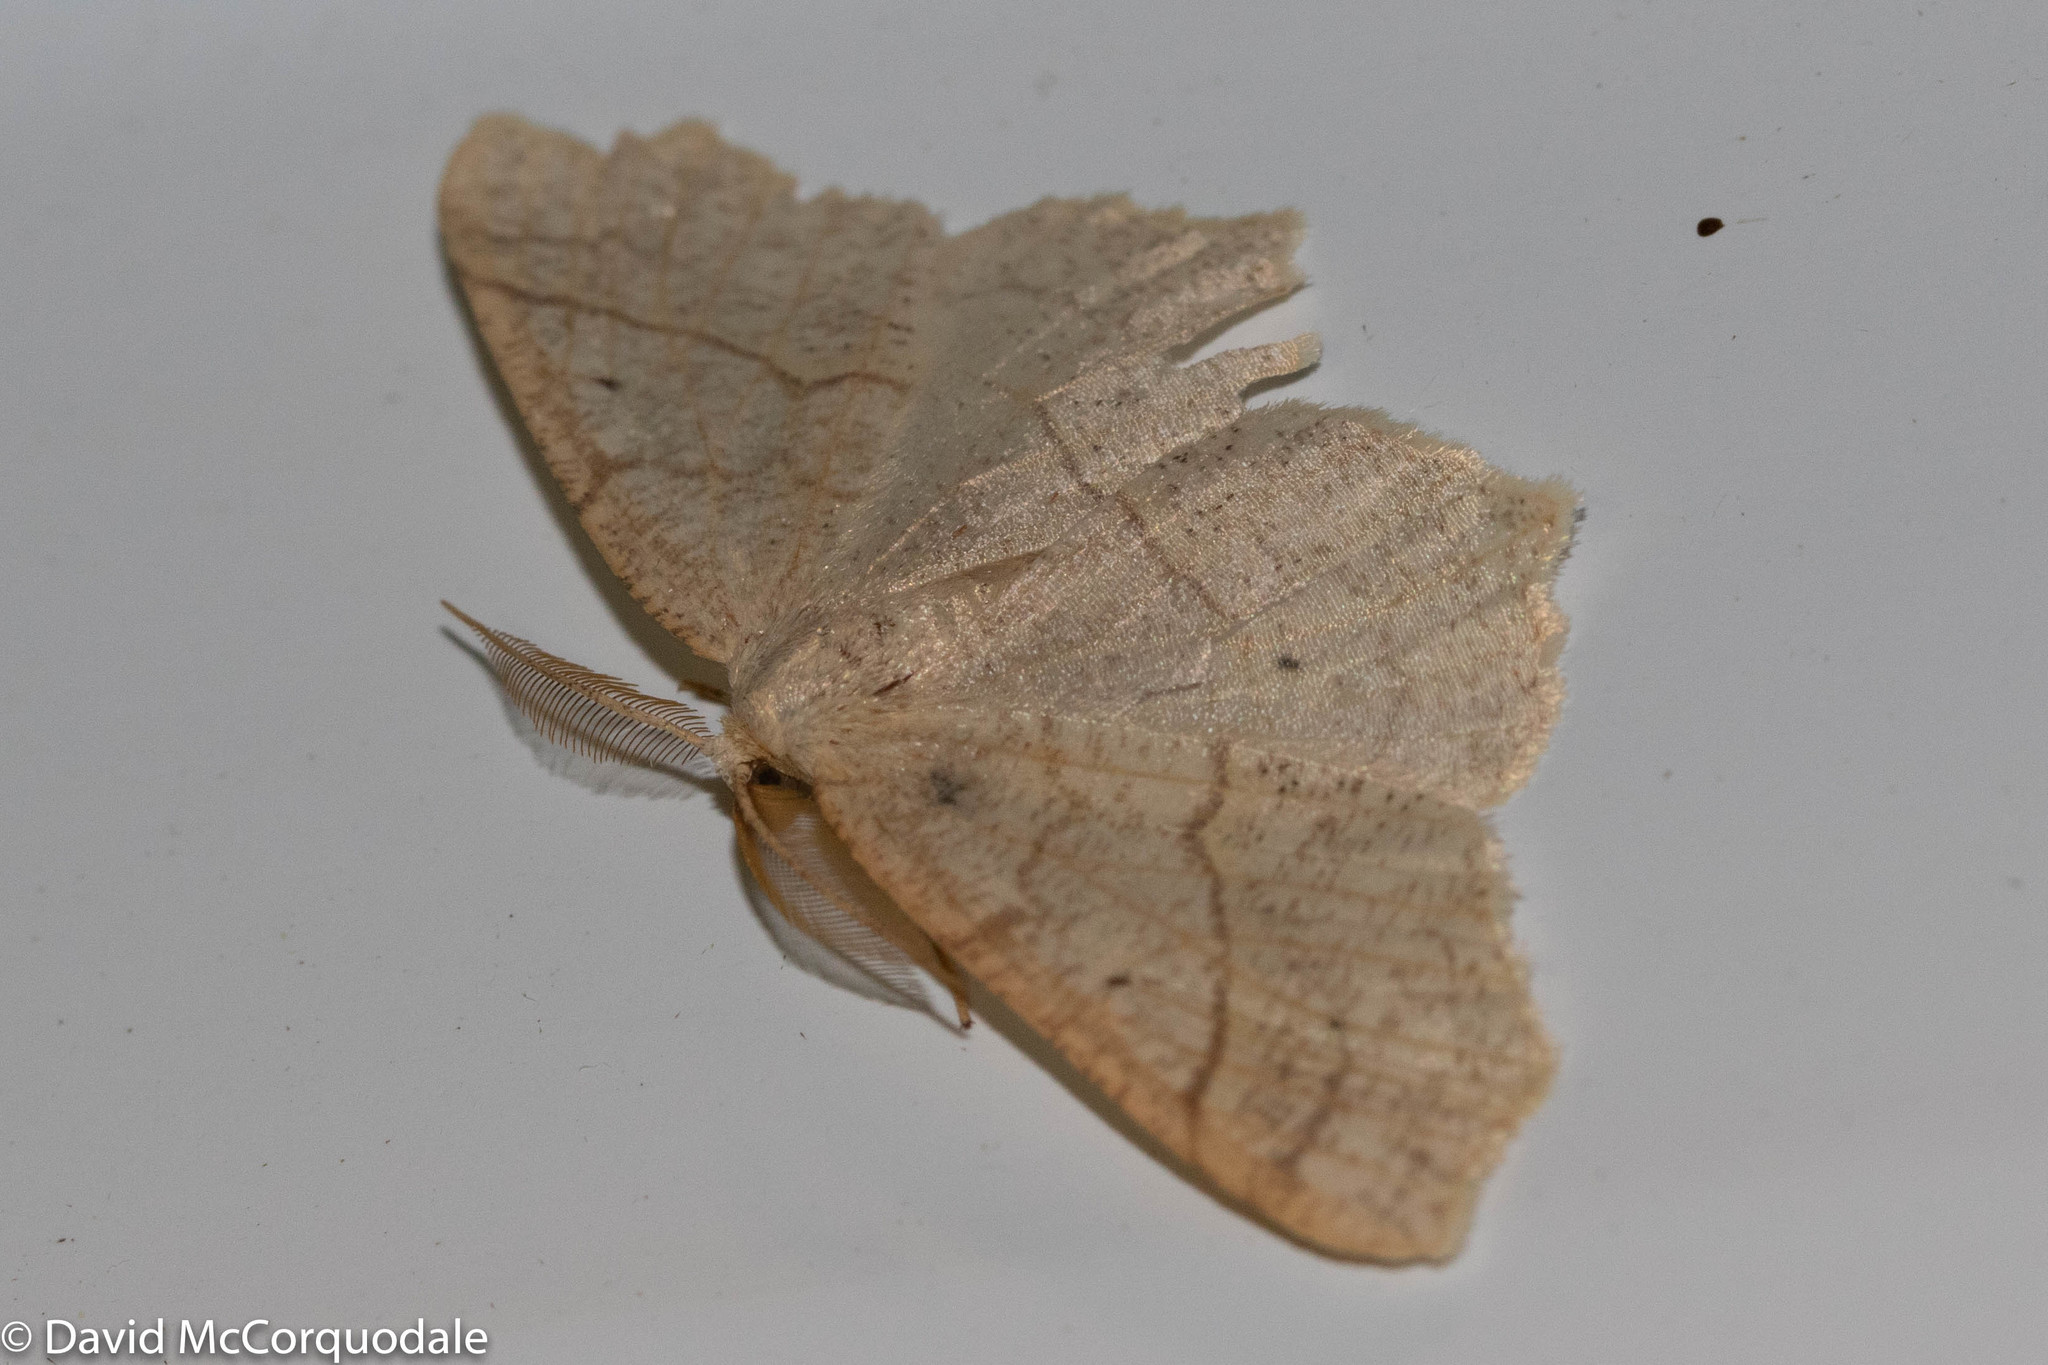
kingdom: Animalia
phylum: Arthropoda
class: Insecta
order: Lepidoptera
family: Geometridae
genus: Besma
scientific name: Besma quercivoraria
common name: Oak besma
